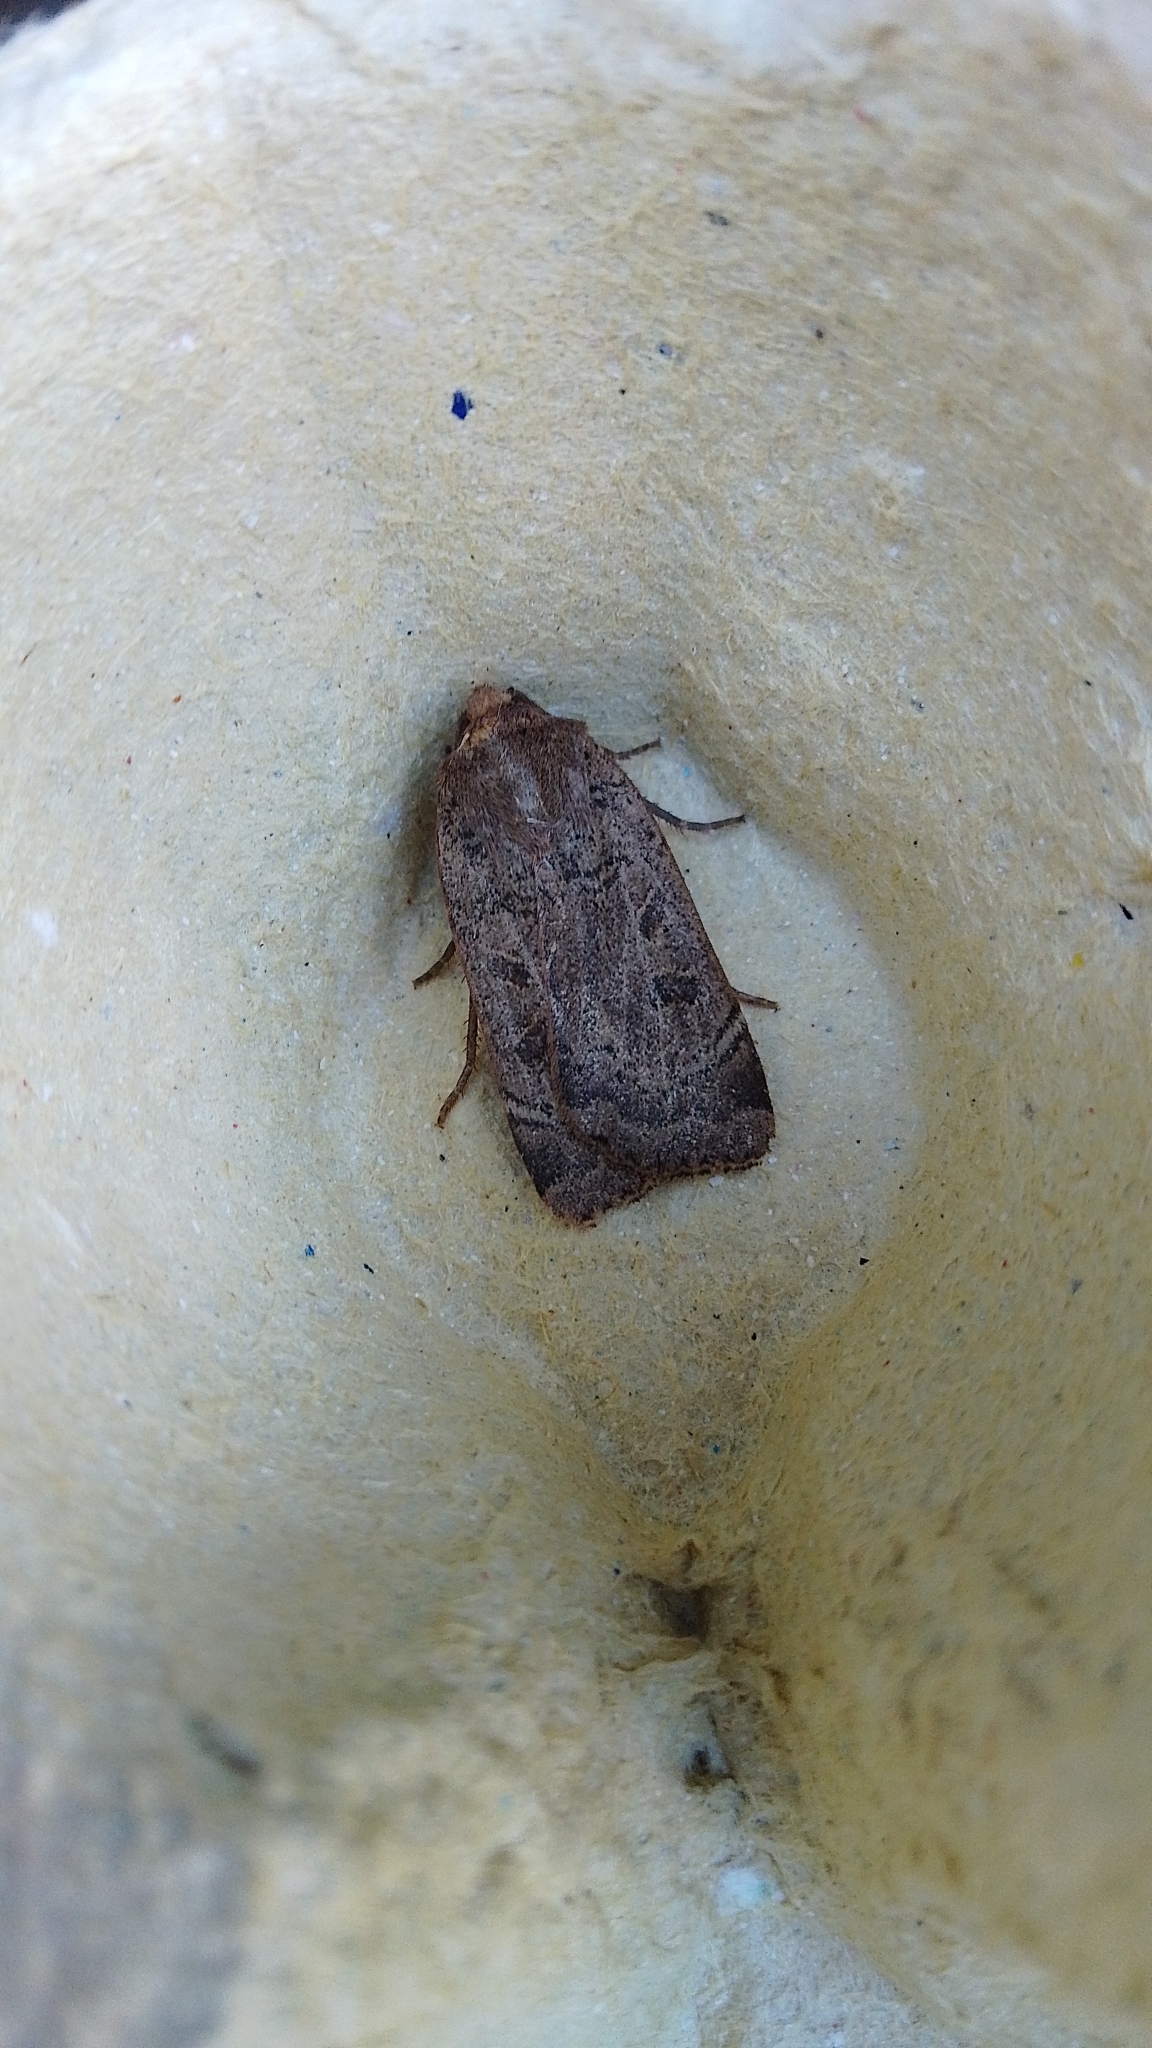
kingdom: Animalia
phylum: Arthropoda
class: Insecta
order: Lepidoptera
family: Noctuidae
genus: Noctua
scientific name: Noctua comes
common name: Lesser yellow underwing
